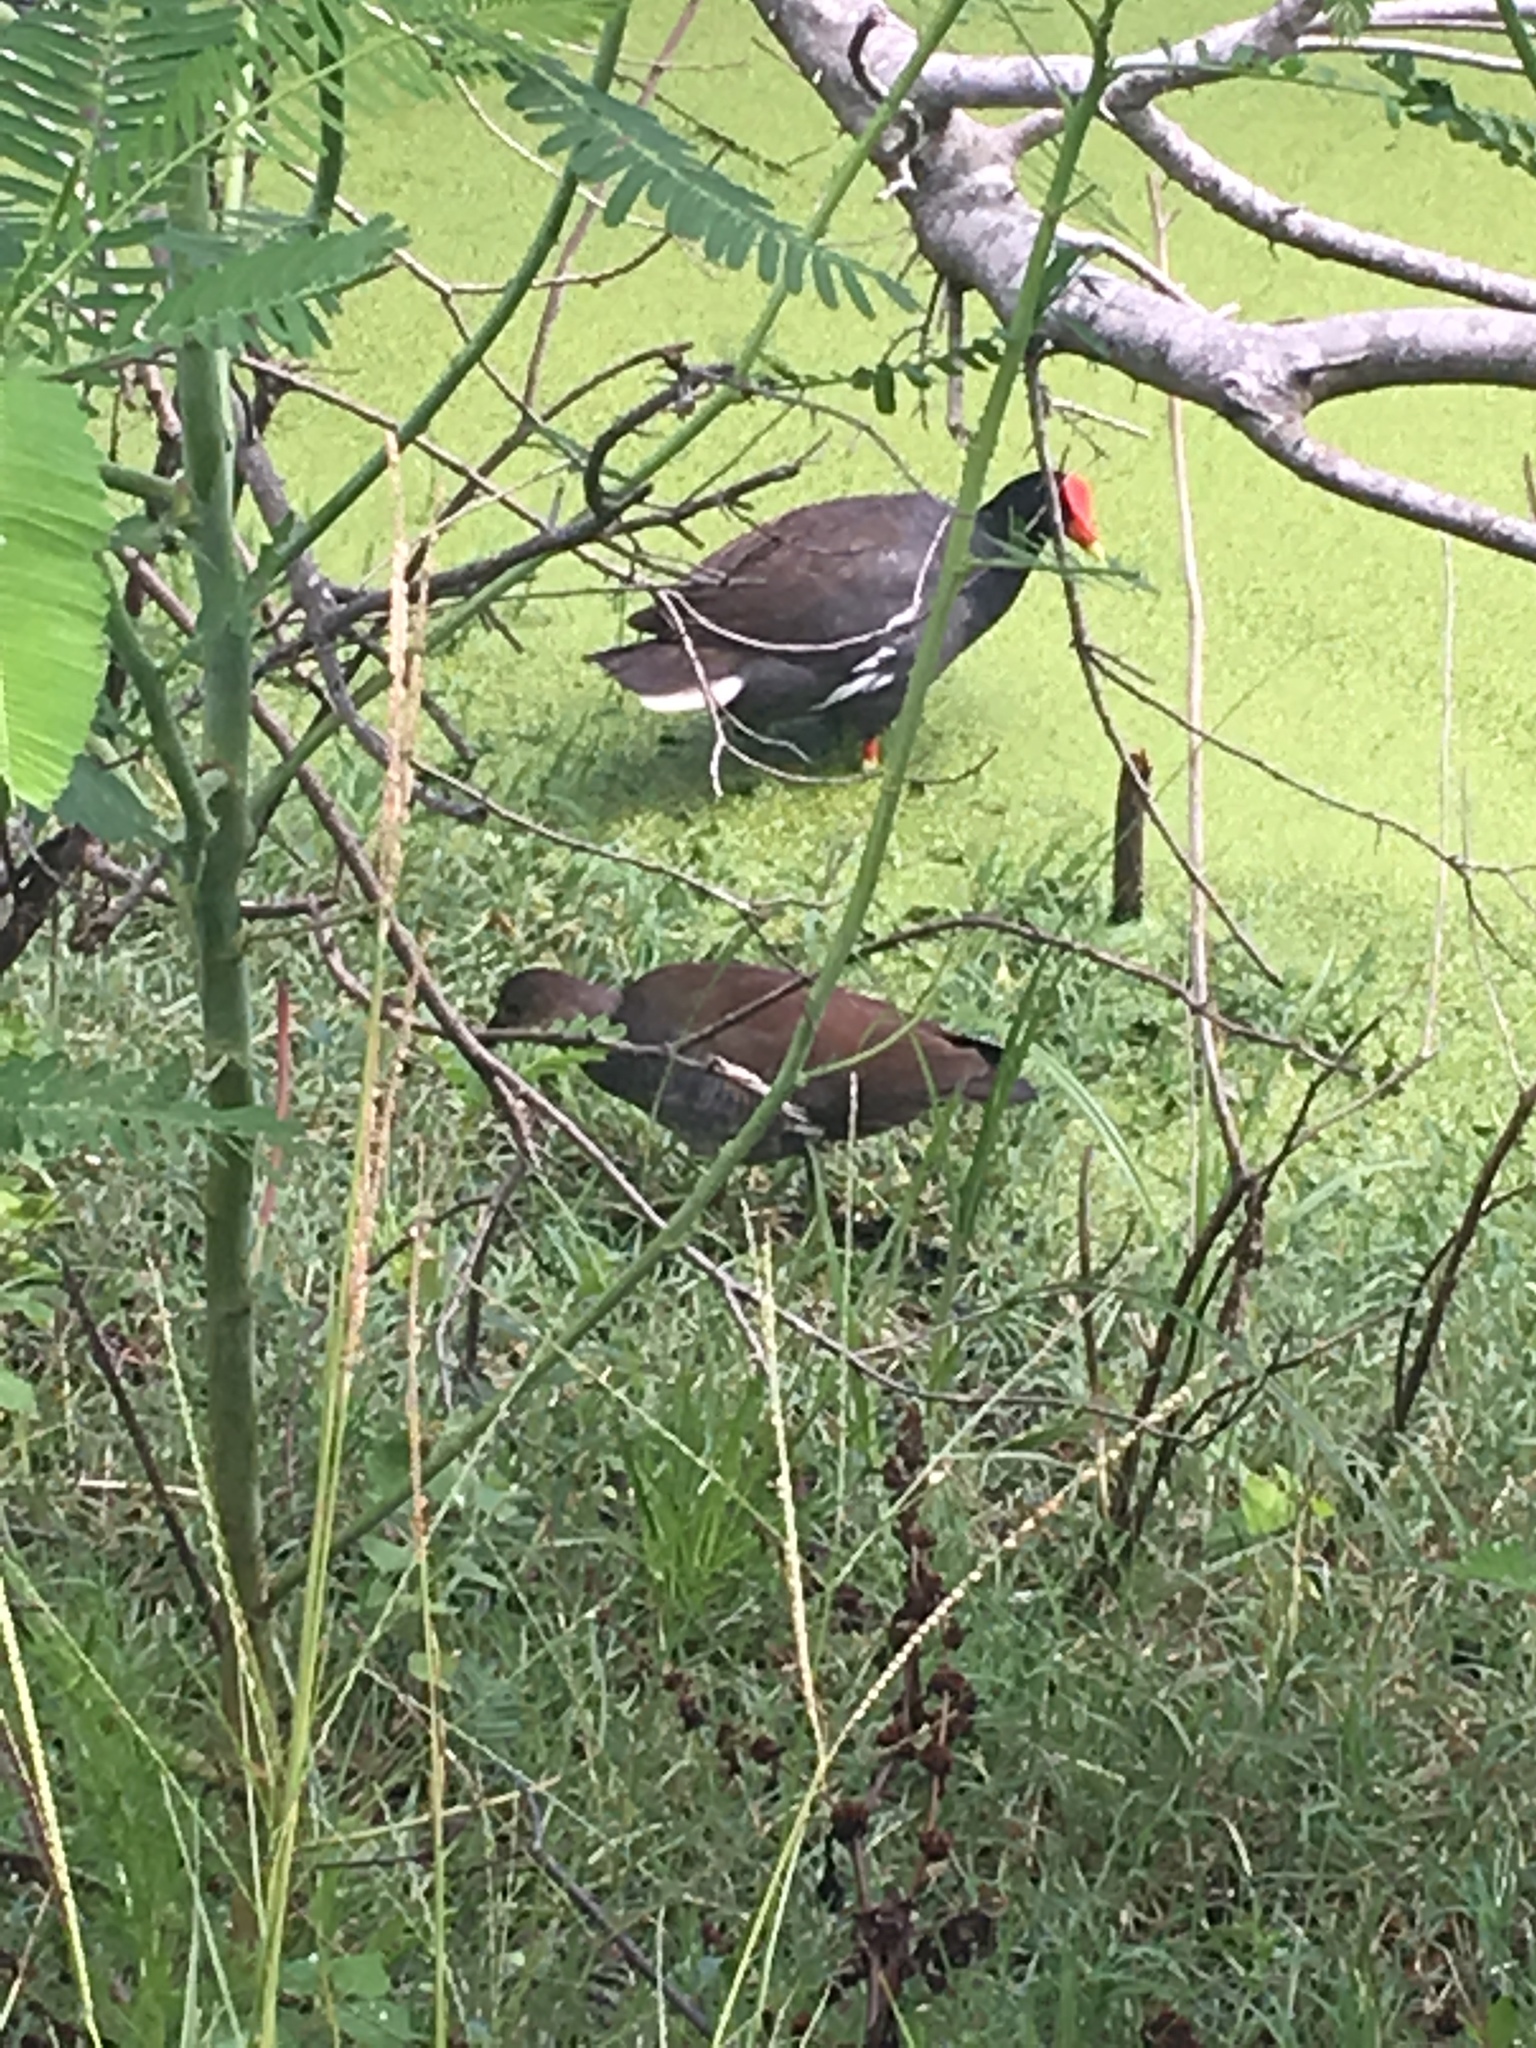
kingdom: Animalia
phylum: Chordata
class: Aves
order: Gruiformes
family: Rallidae
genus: Gallinula
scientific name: Gallinula chloropus
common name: Common moorhen
